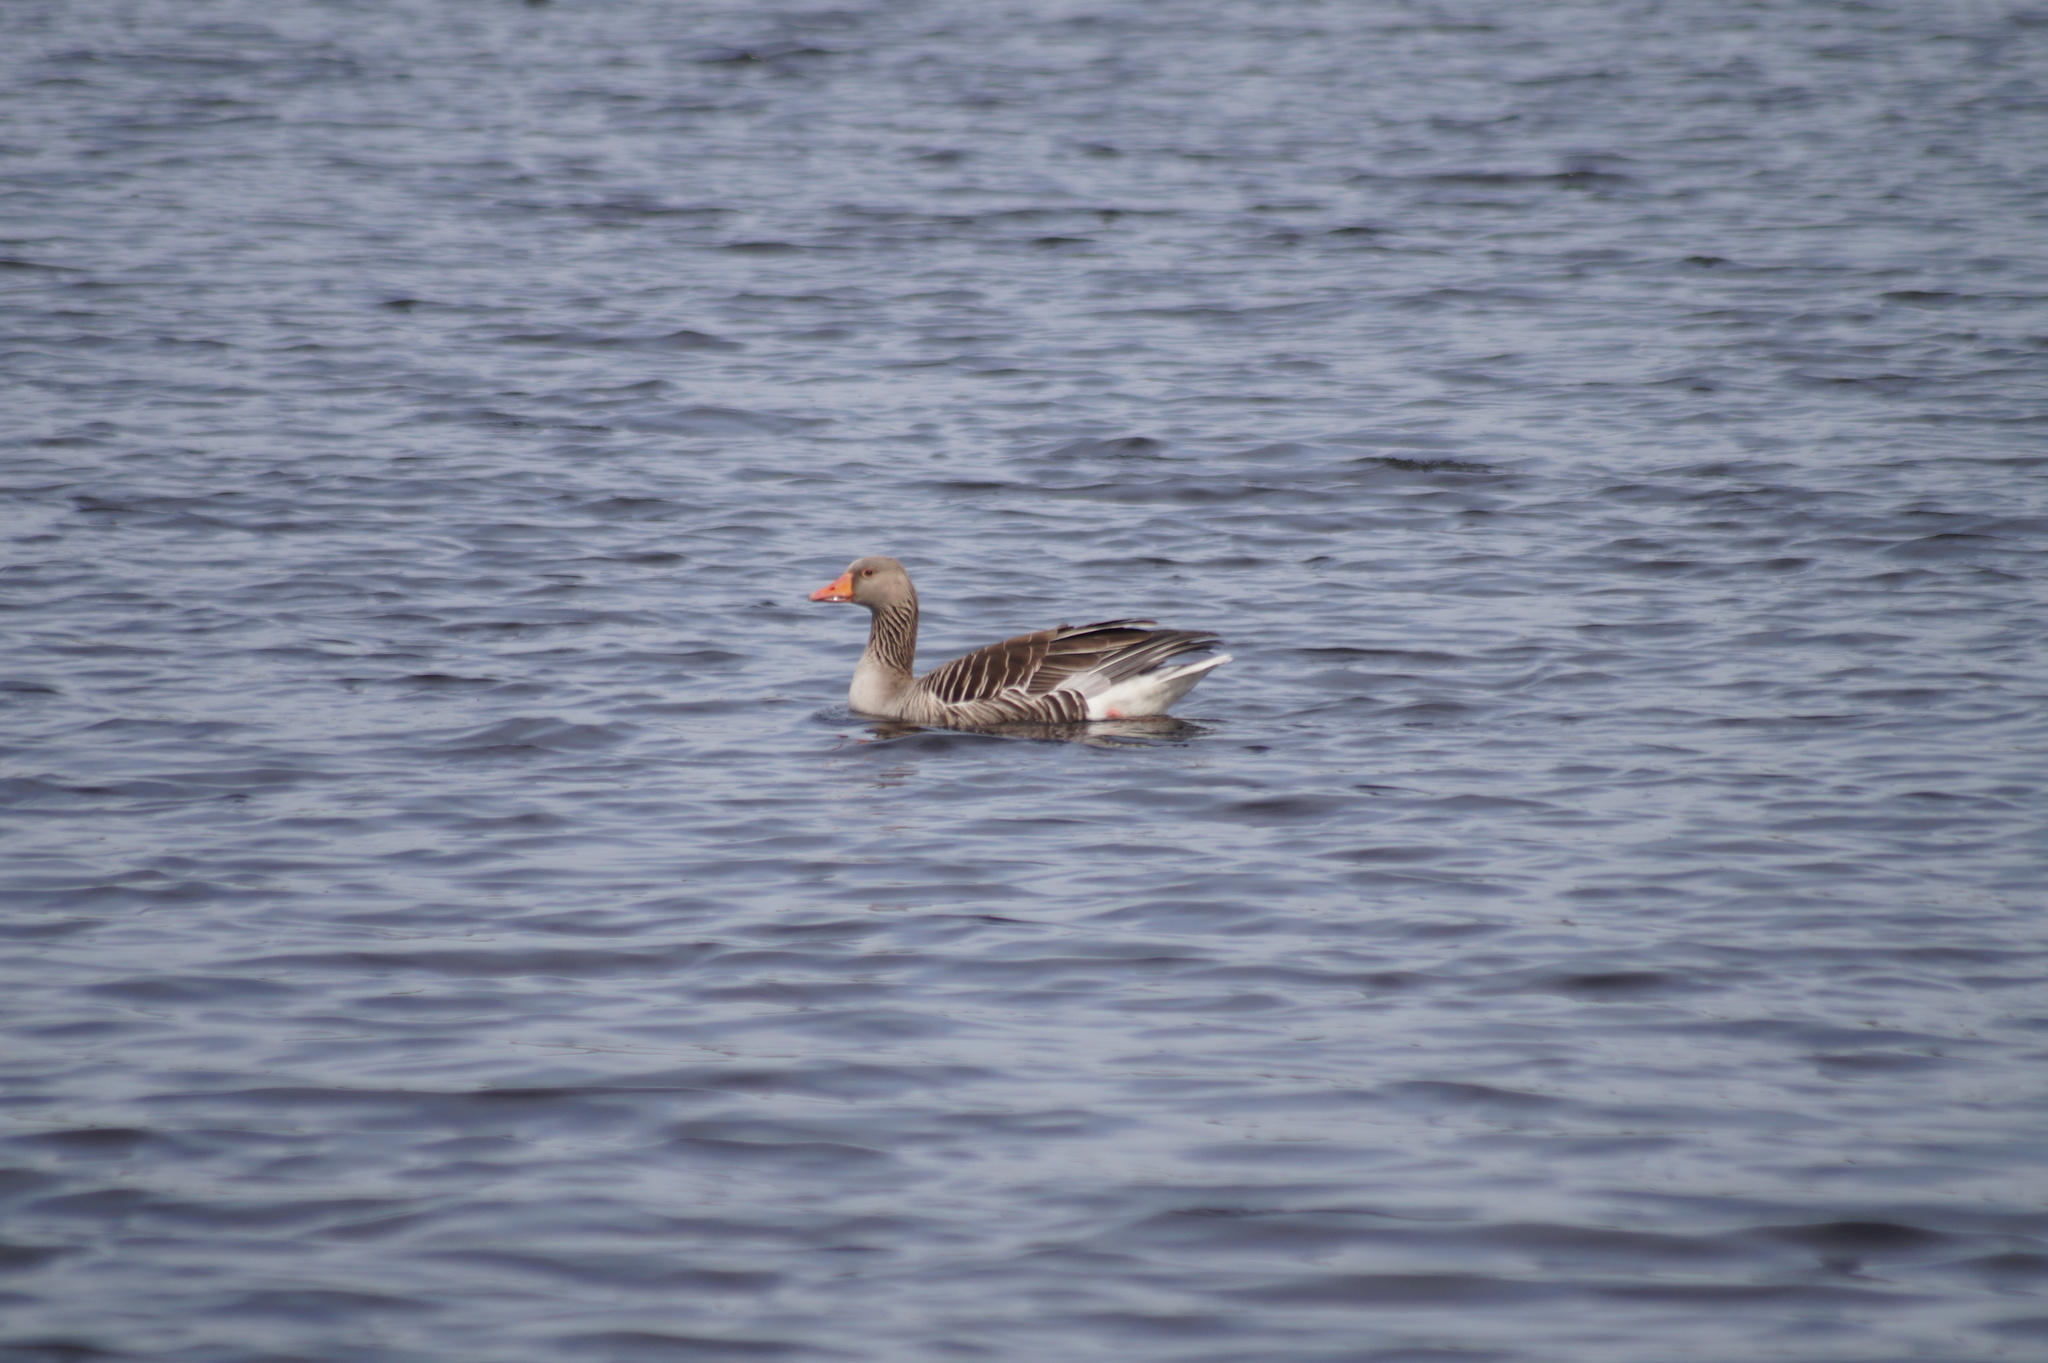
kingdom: Animalia
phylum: Chordata
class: Aves
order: Anseriformes
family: Anatidae
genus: Anser
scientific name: Anser anser
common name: Greylag goose
